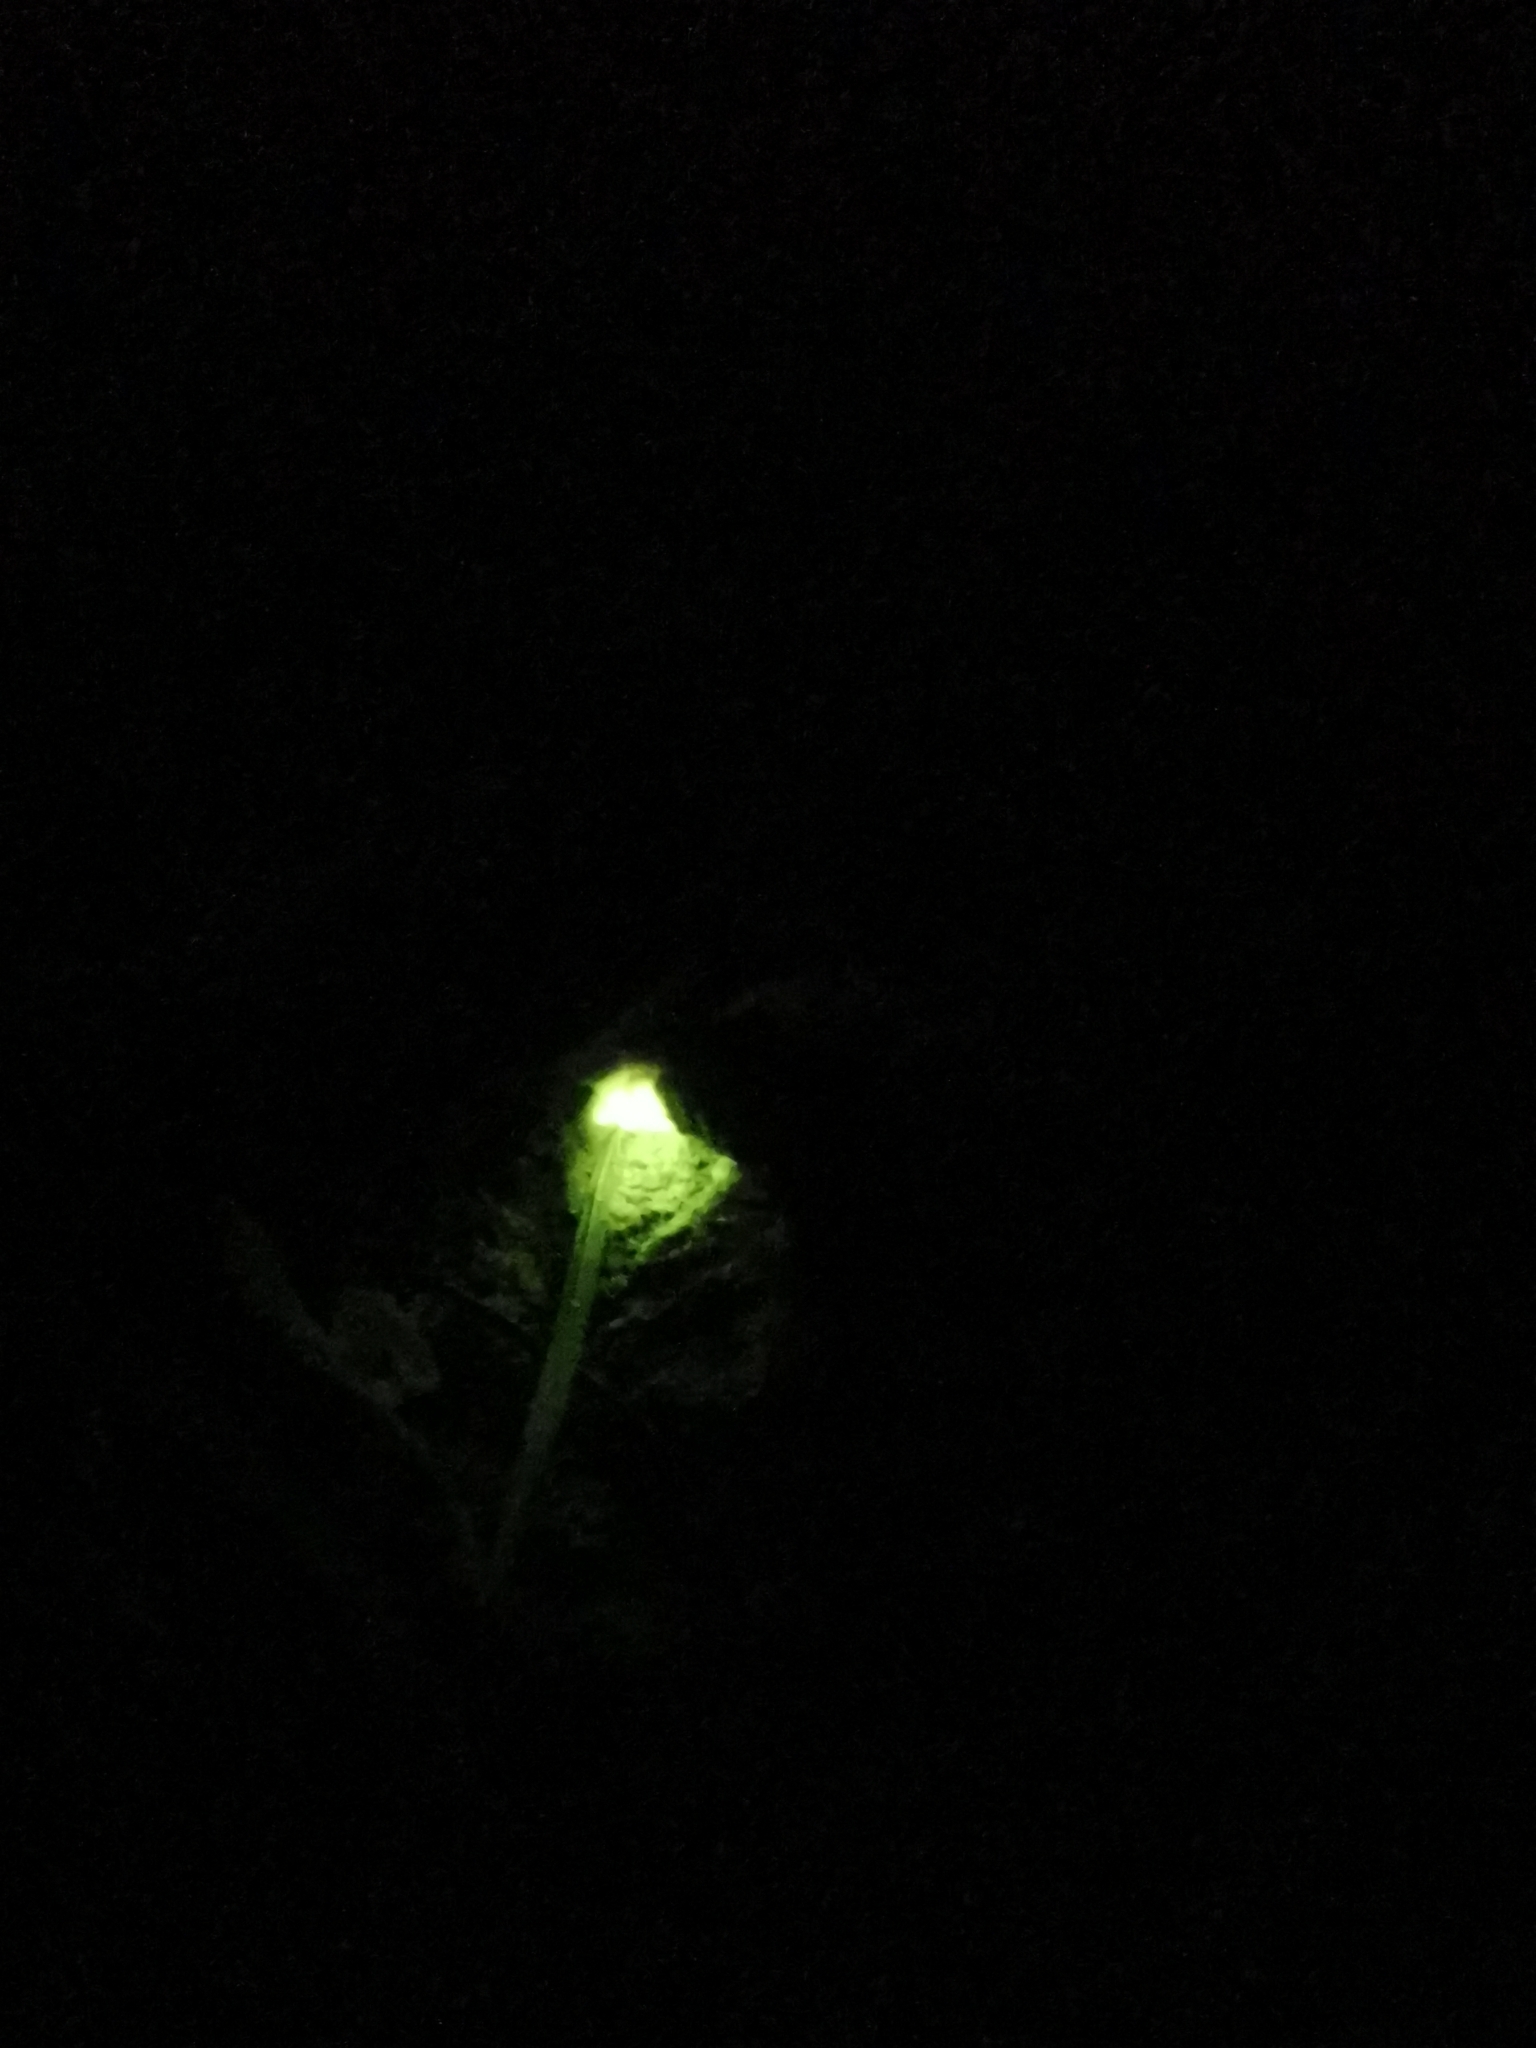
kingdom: Animalia
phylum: Arthropoda
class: Insecta
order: Coleoptera
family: Lampyridae
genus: Lampyris
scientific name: Lampyris noctiluca
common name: Glow-worm
